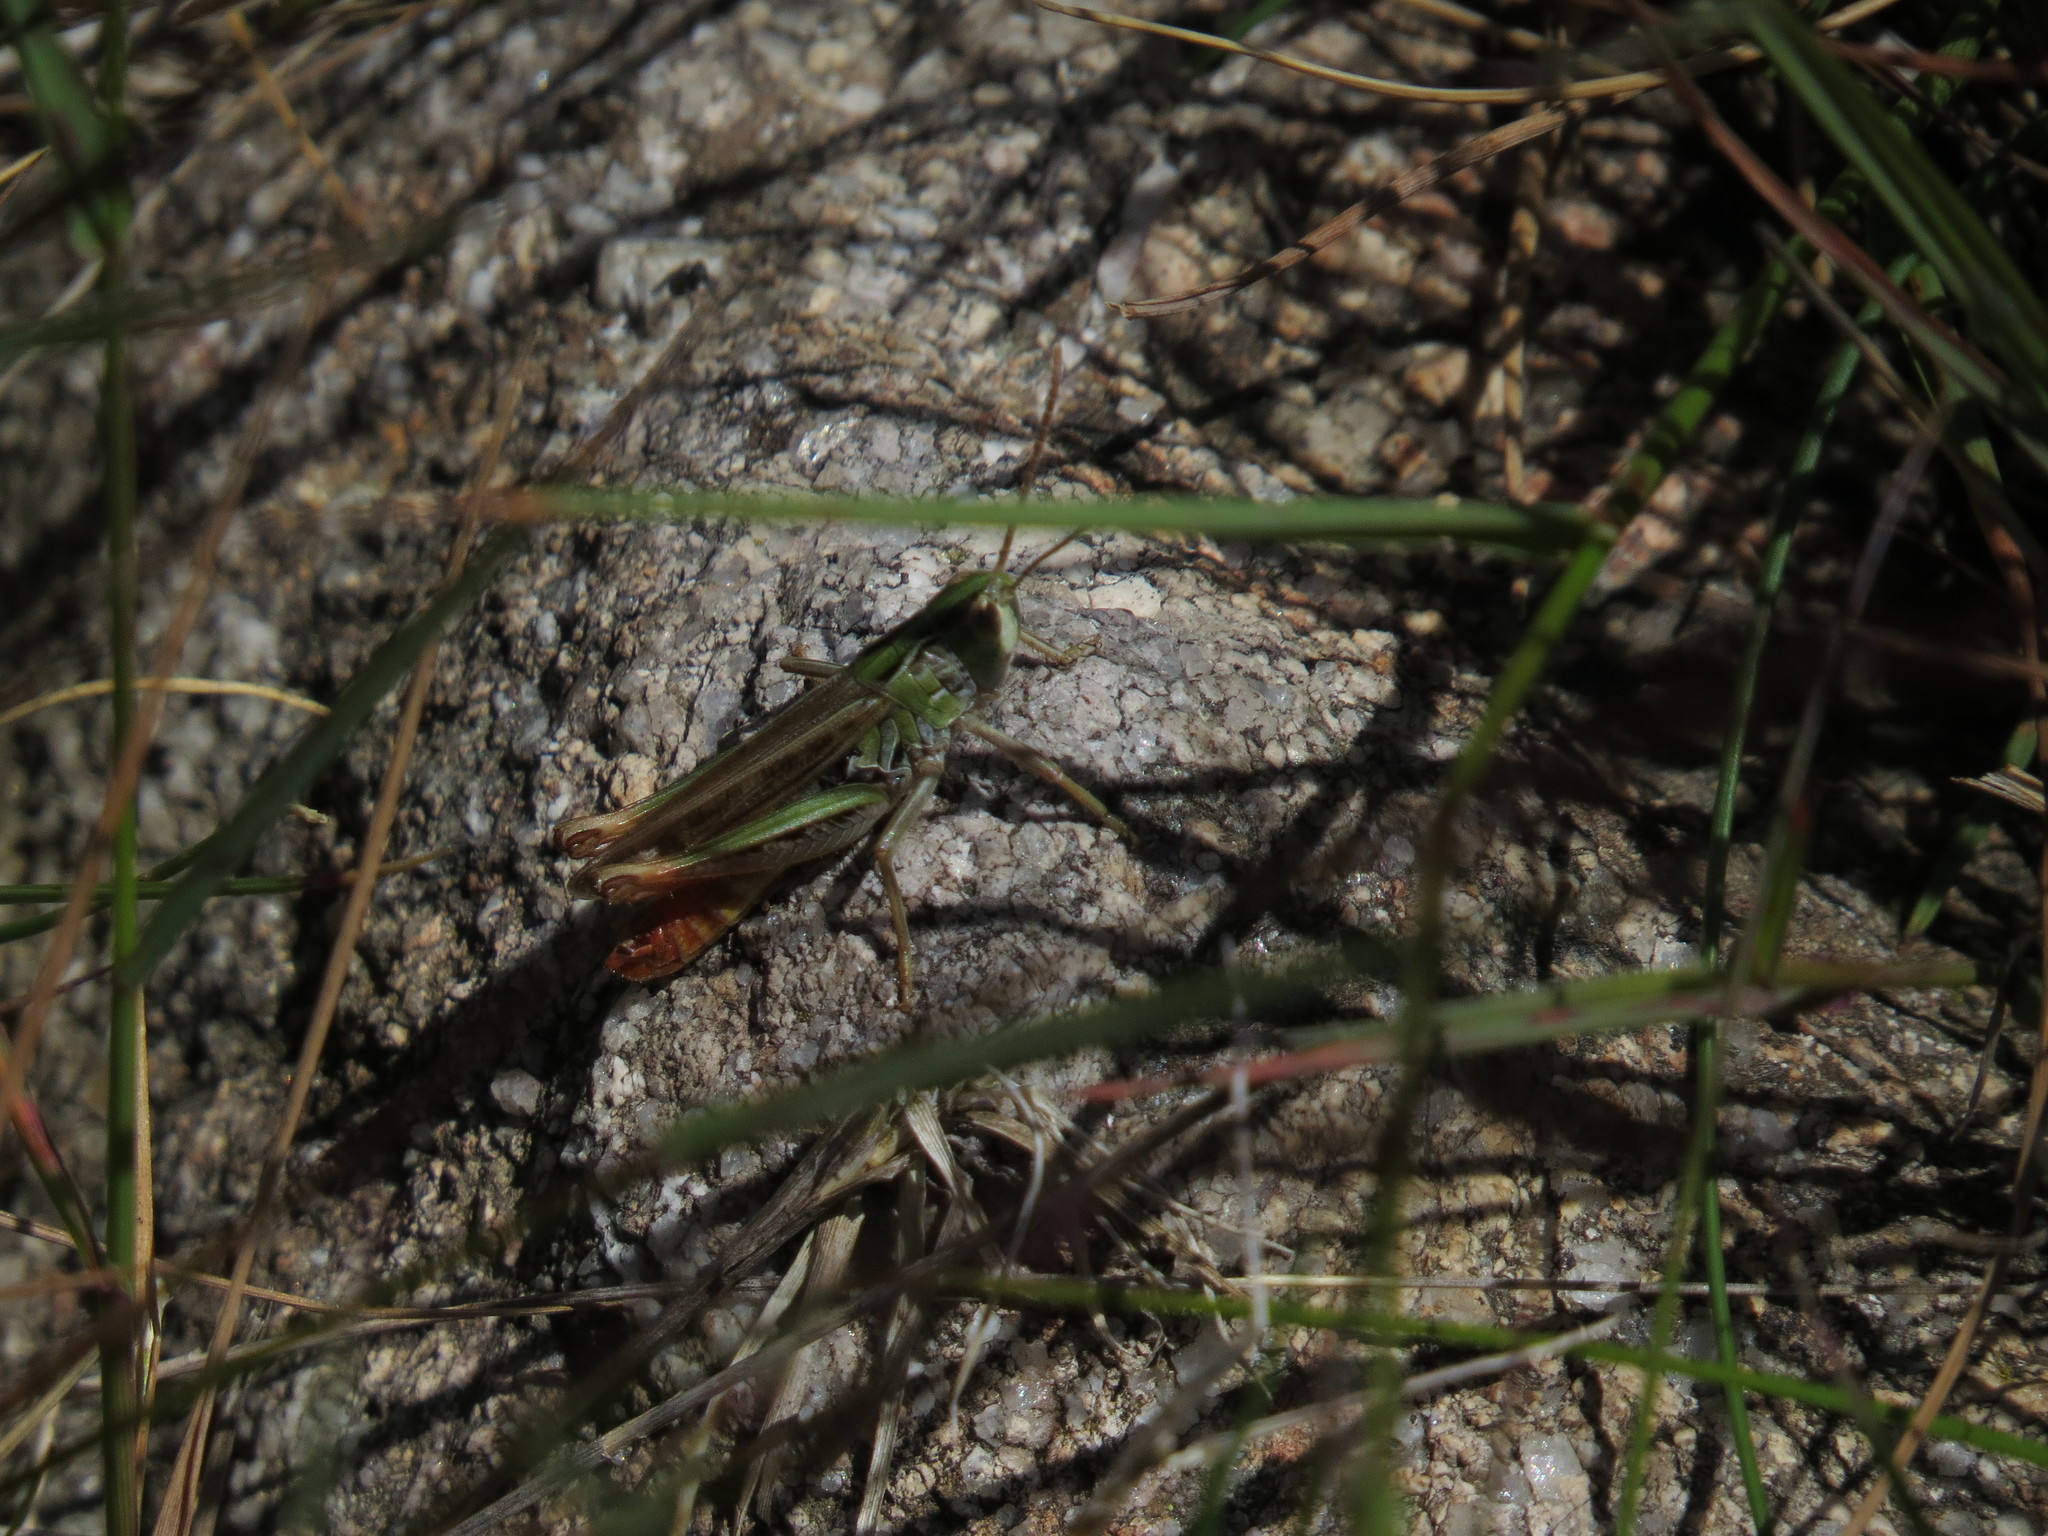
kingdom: Animalia
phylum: Arthropoda
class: Insecta
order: Orthoptera
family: Acrididae
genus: Stenobothrus
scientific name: Stenobothrus nigromaculatus
